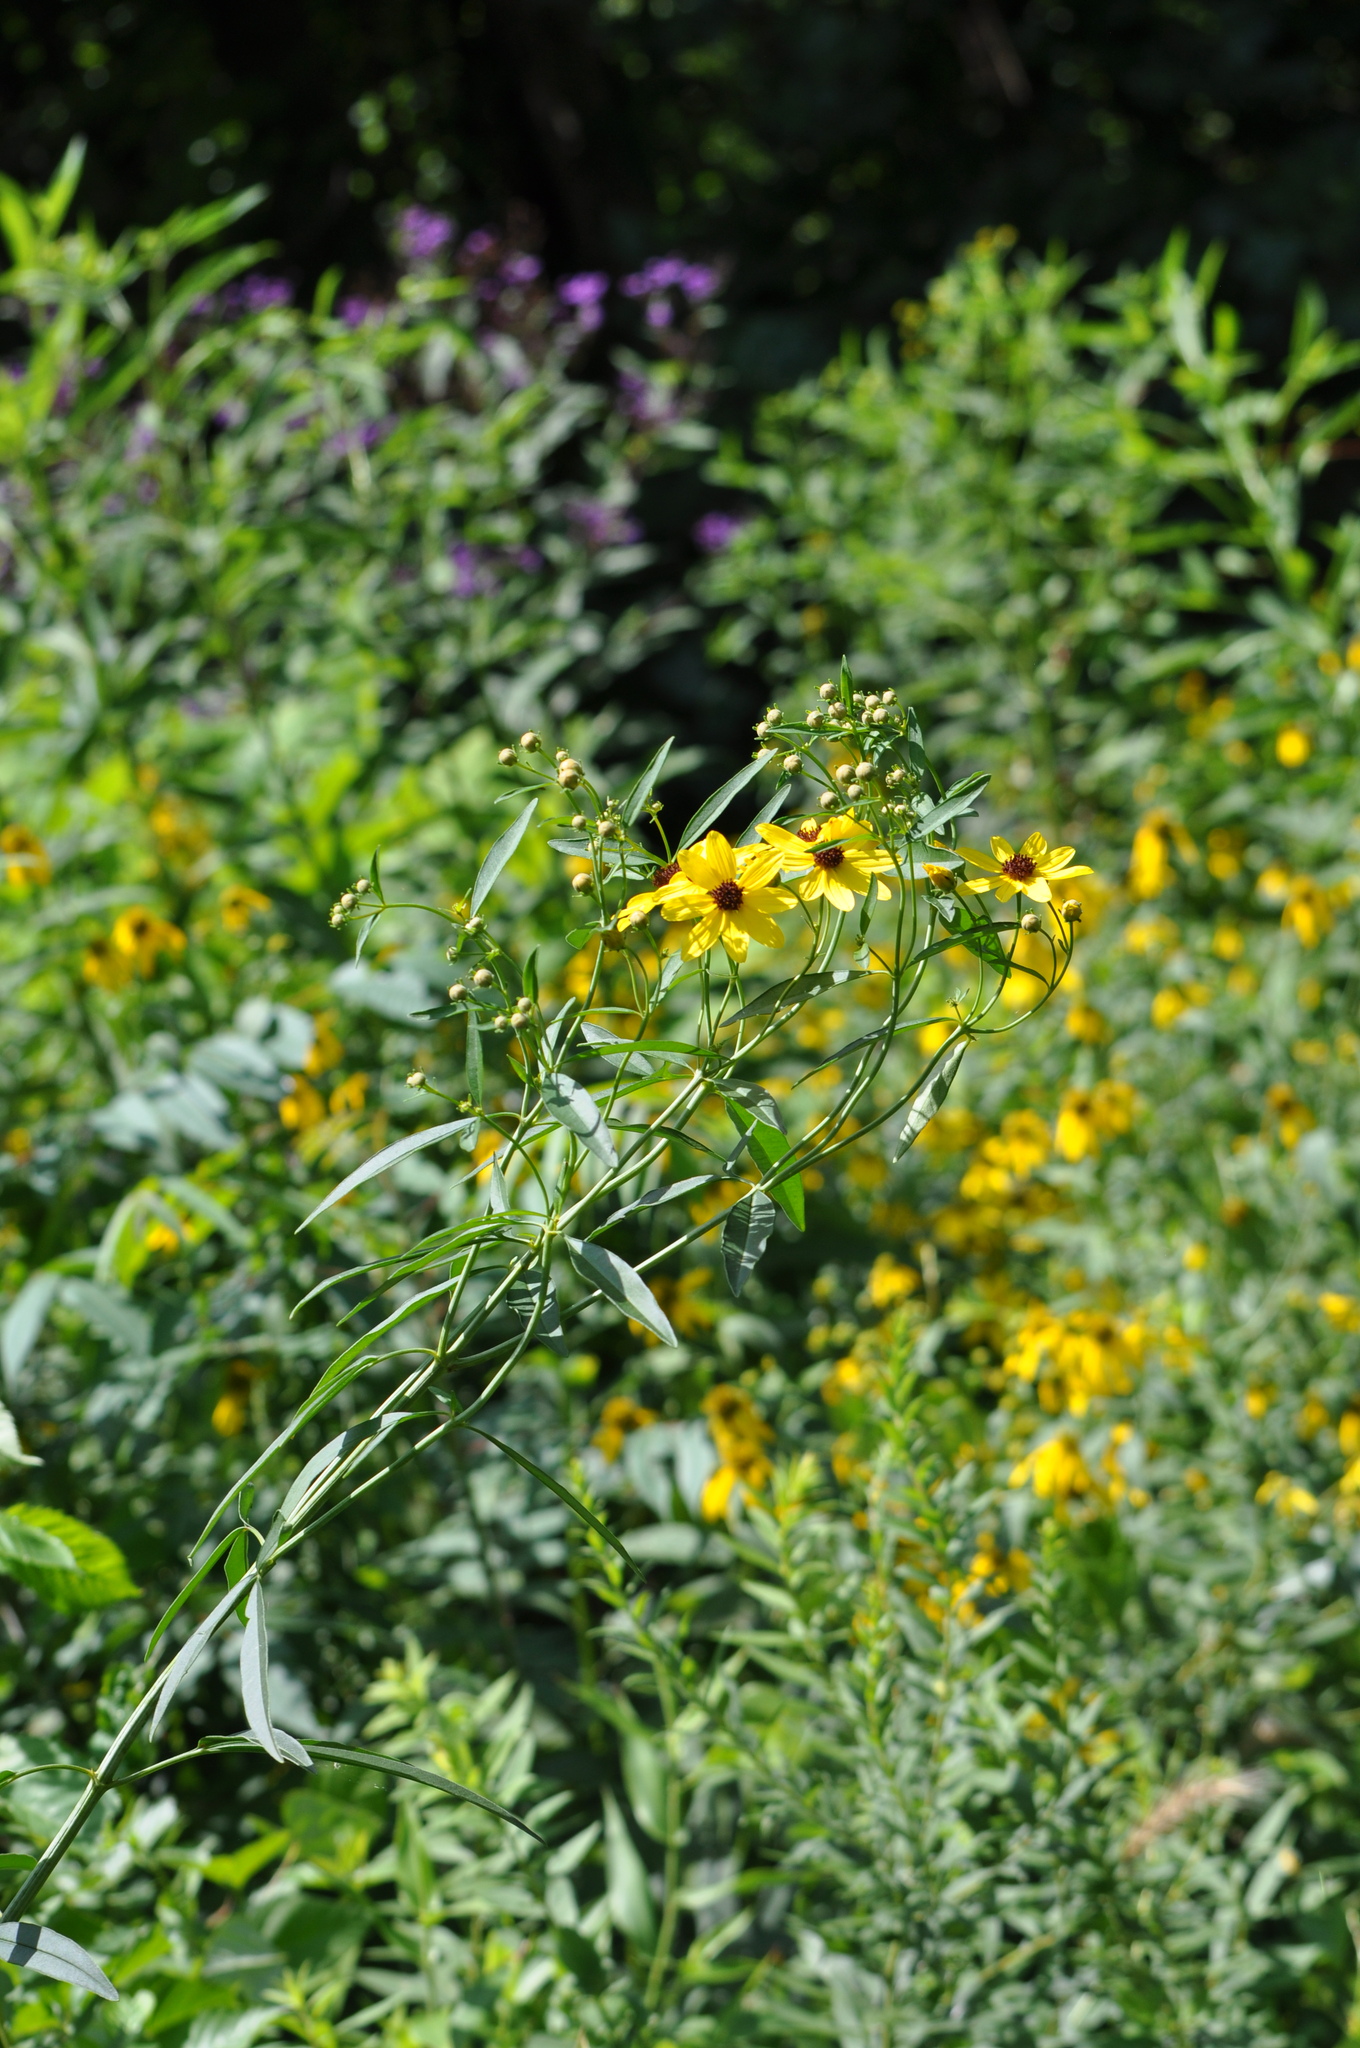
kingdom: Plantae
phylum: Tracheophyta
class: Magnoliopsida
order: Asterales
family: Asteraceae
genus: Coreopsis
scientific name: Coreopsis tripteris
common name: Tall coreopsis
